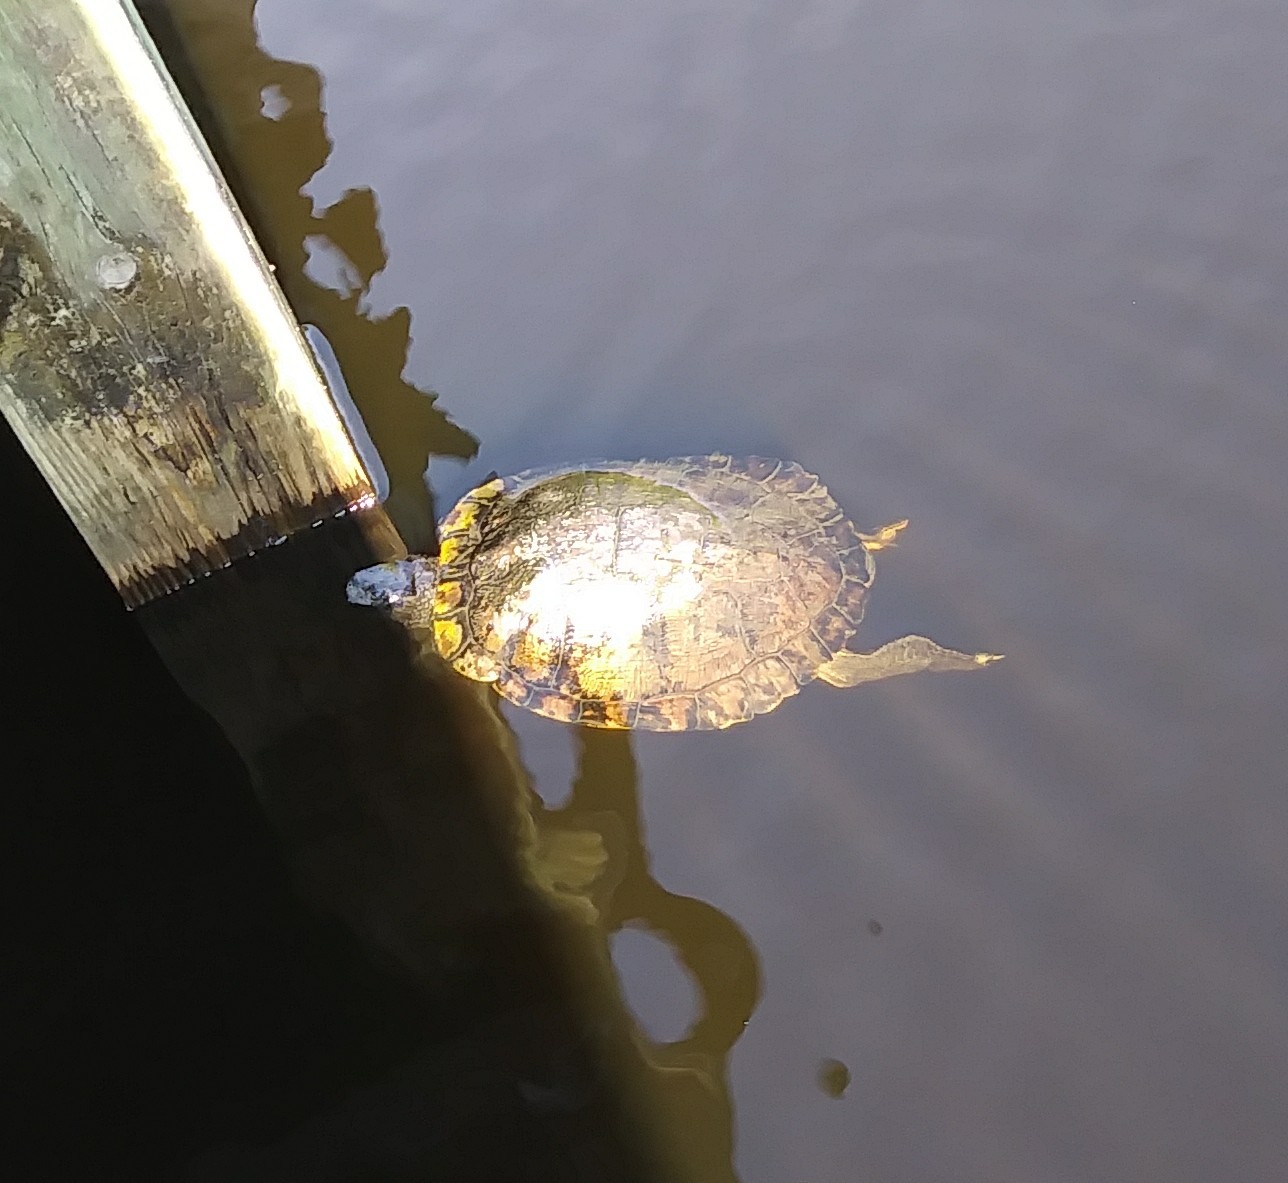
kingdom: Animalia
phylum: Chordata
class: Testudines
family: Emydidae
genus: Trachemys
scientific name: Trachemys scripta
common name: Slider
